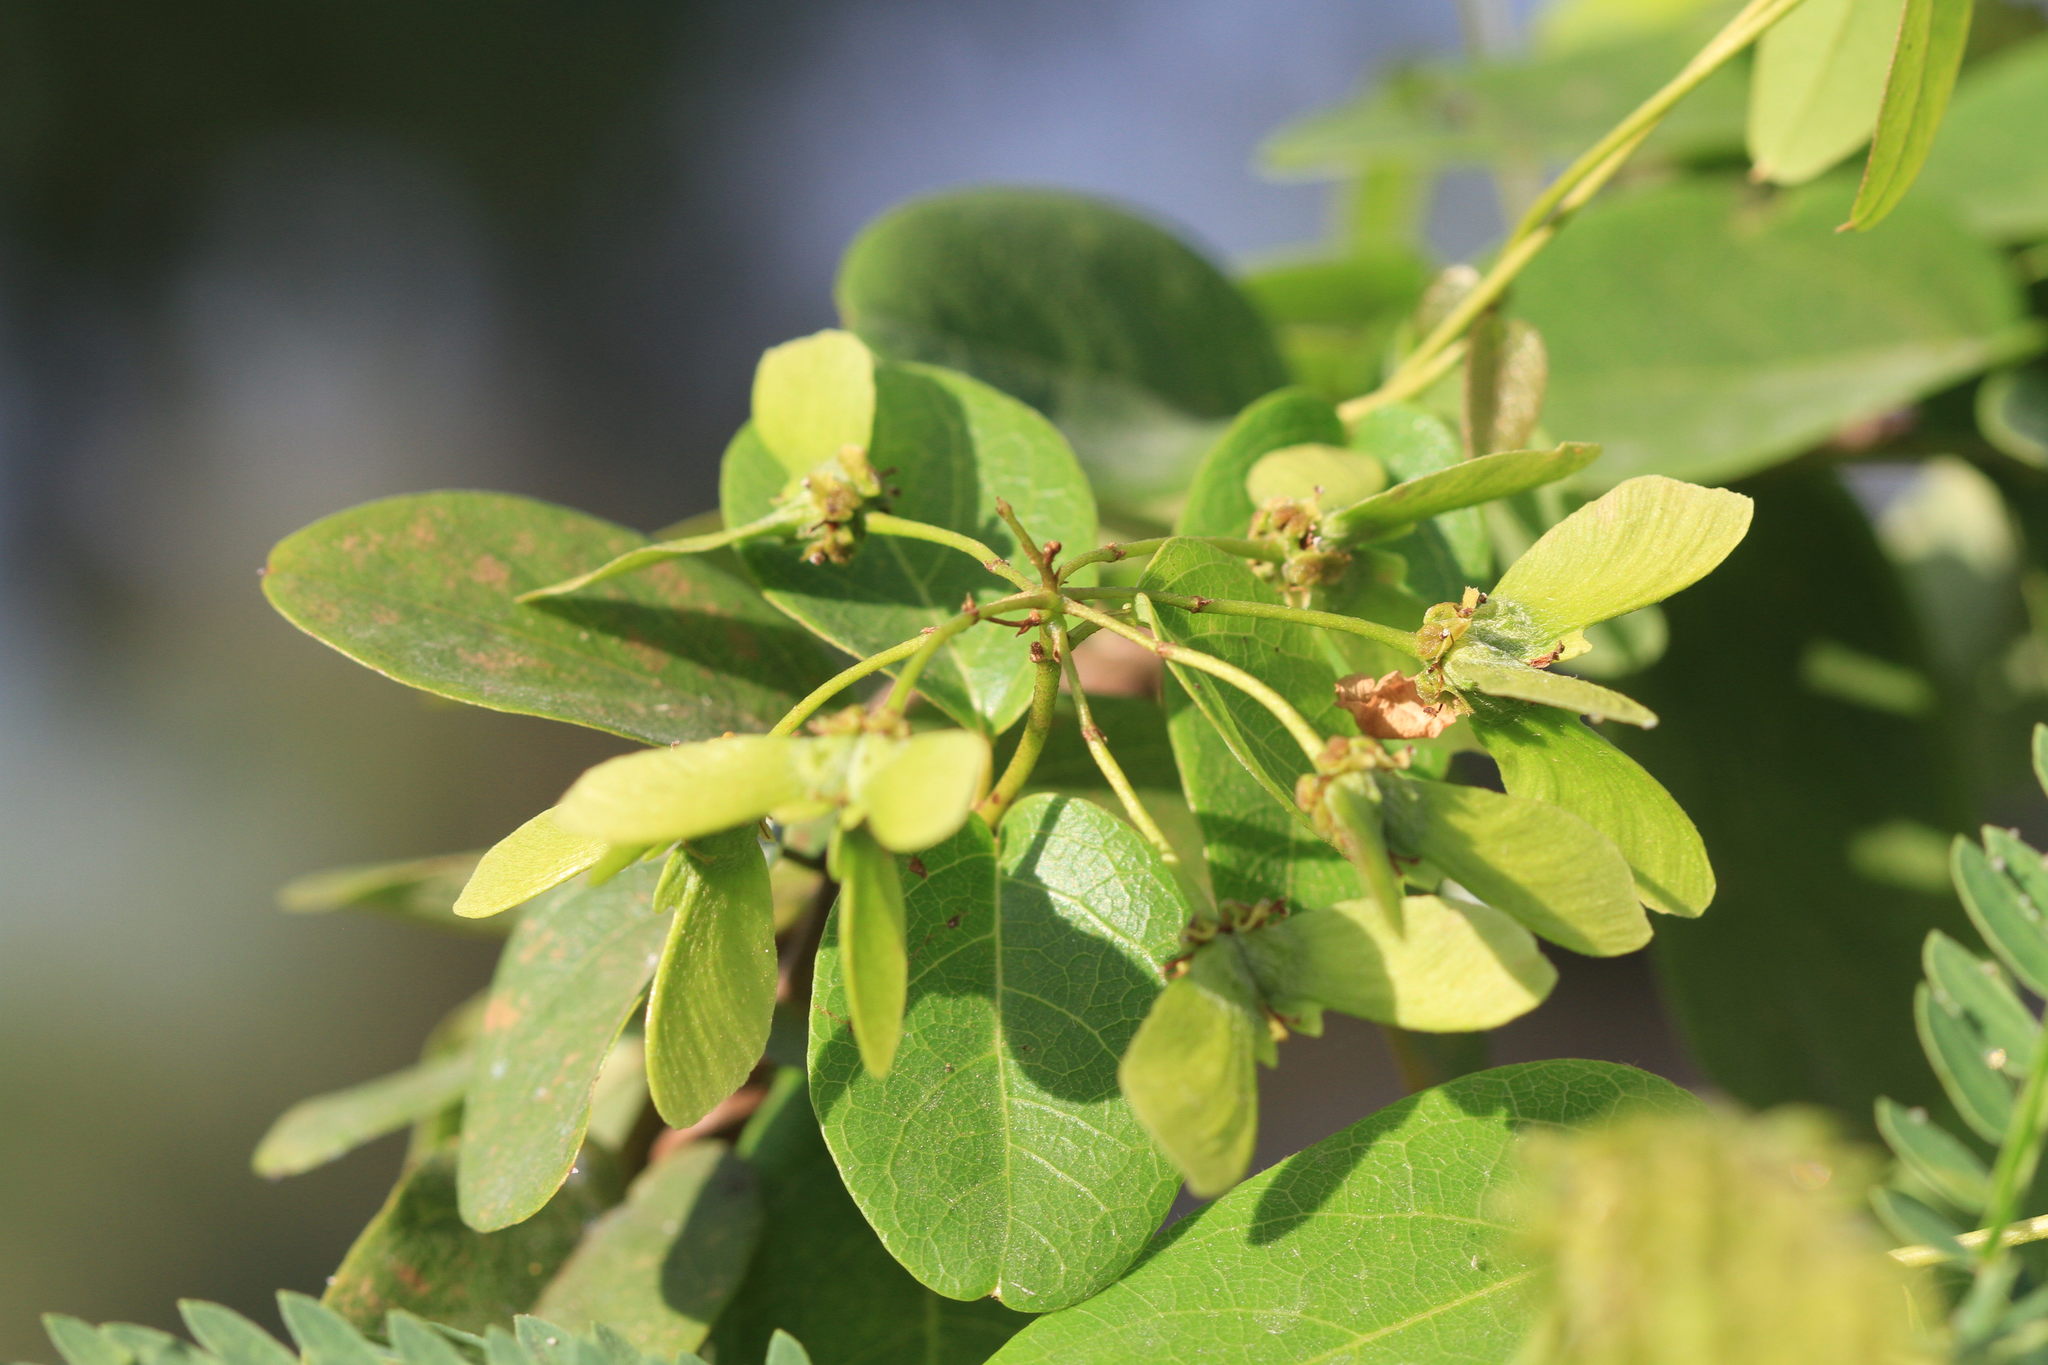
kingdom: Plantae
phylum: Tracheophyta
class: Magnoliopsida
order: Malpighiales
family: Malpighiaceae
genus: Stigmaphyllon
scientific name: Stigmaphyllon emarginatum
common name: Monarch amazonvine
